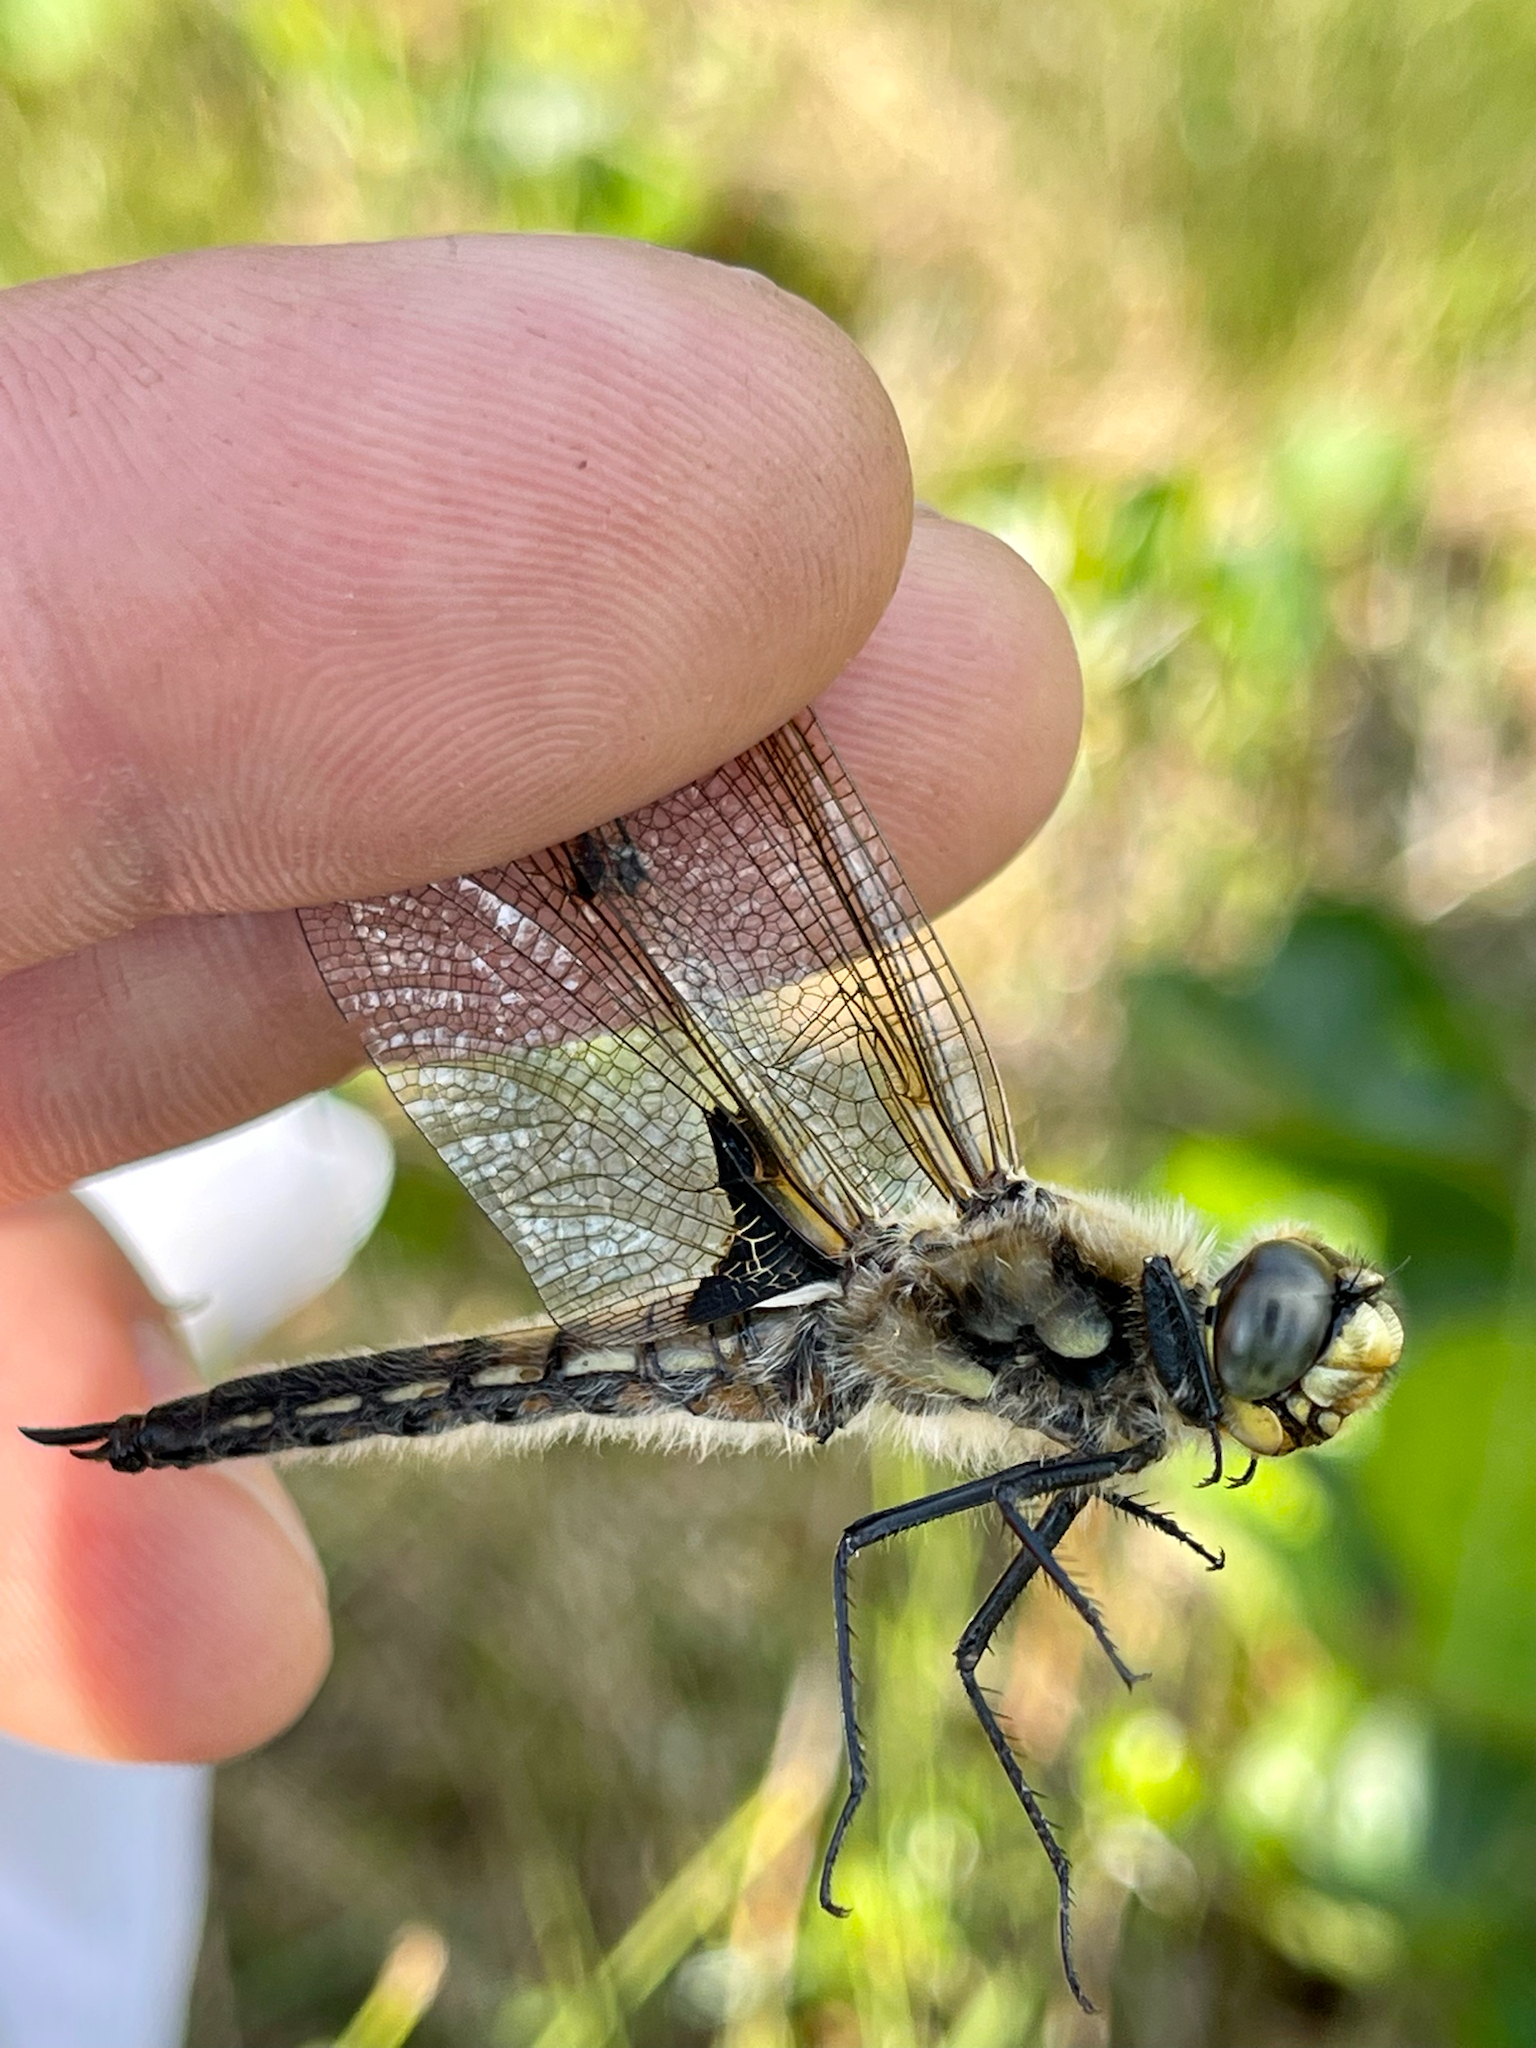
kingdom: Animalia
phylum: Arthropoda
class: Insecta
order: Odonata
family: Libellulidae
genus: Libellula
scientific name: Libellula quadrimaculata
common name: Four-spotted chaser
